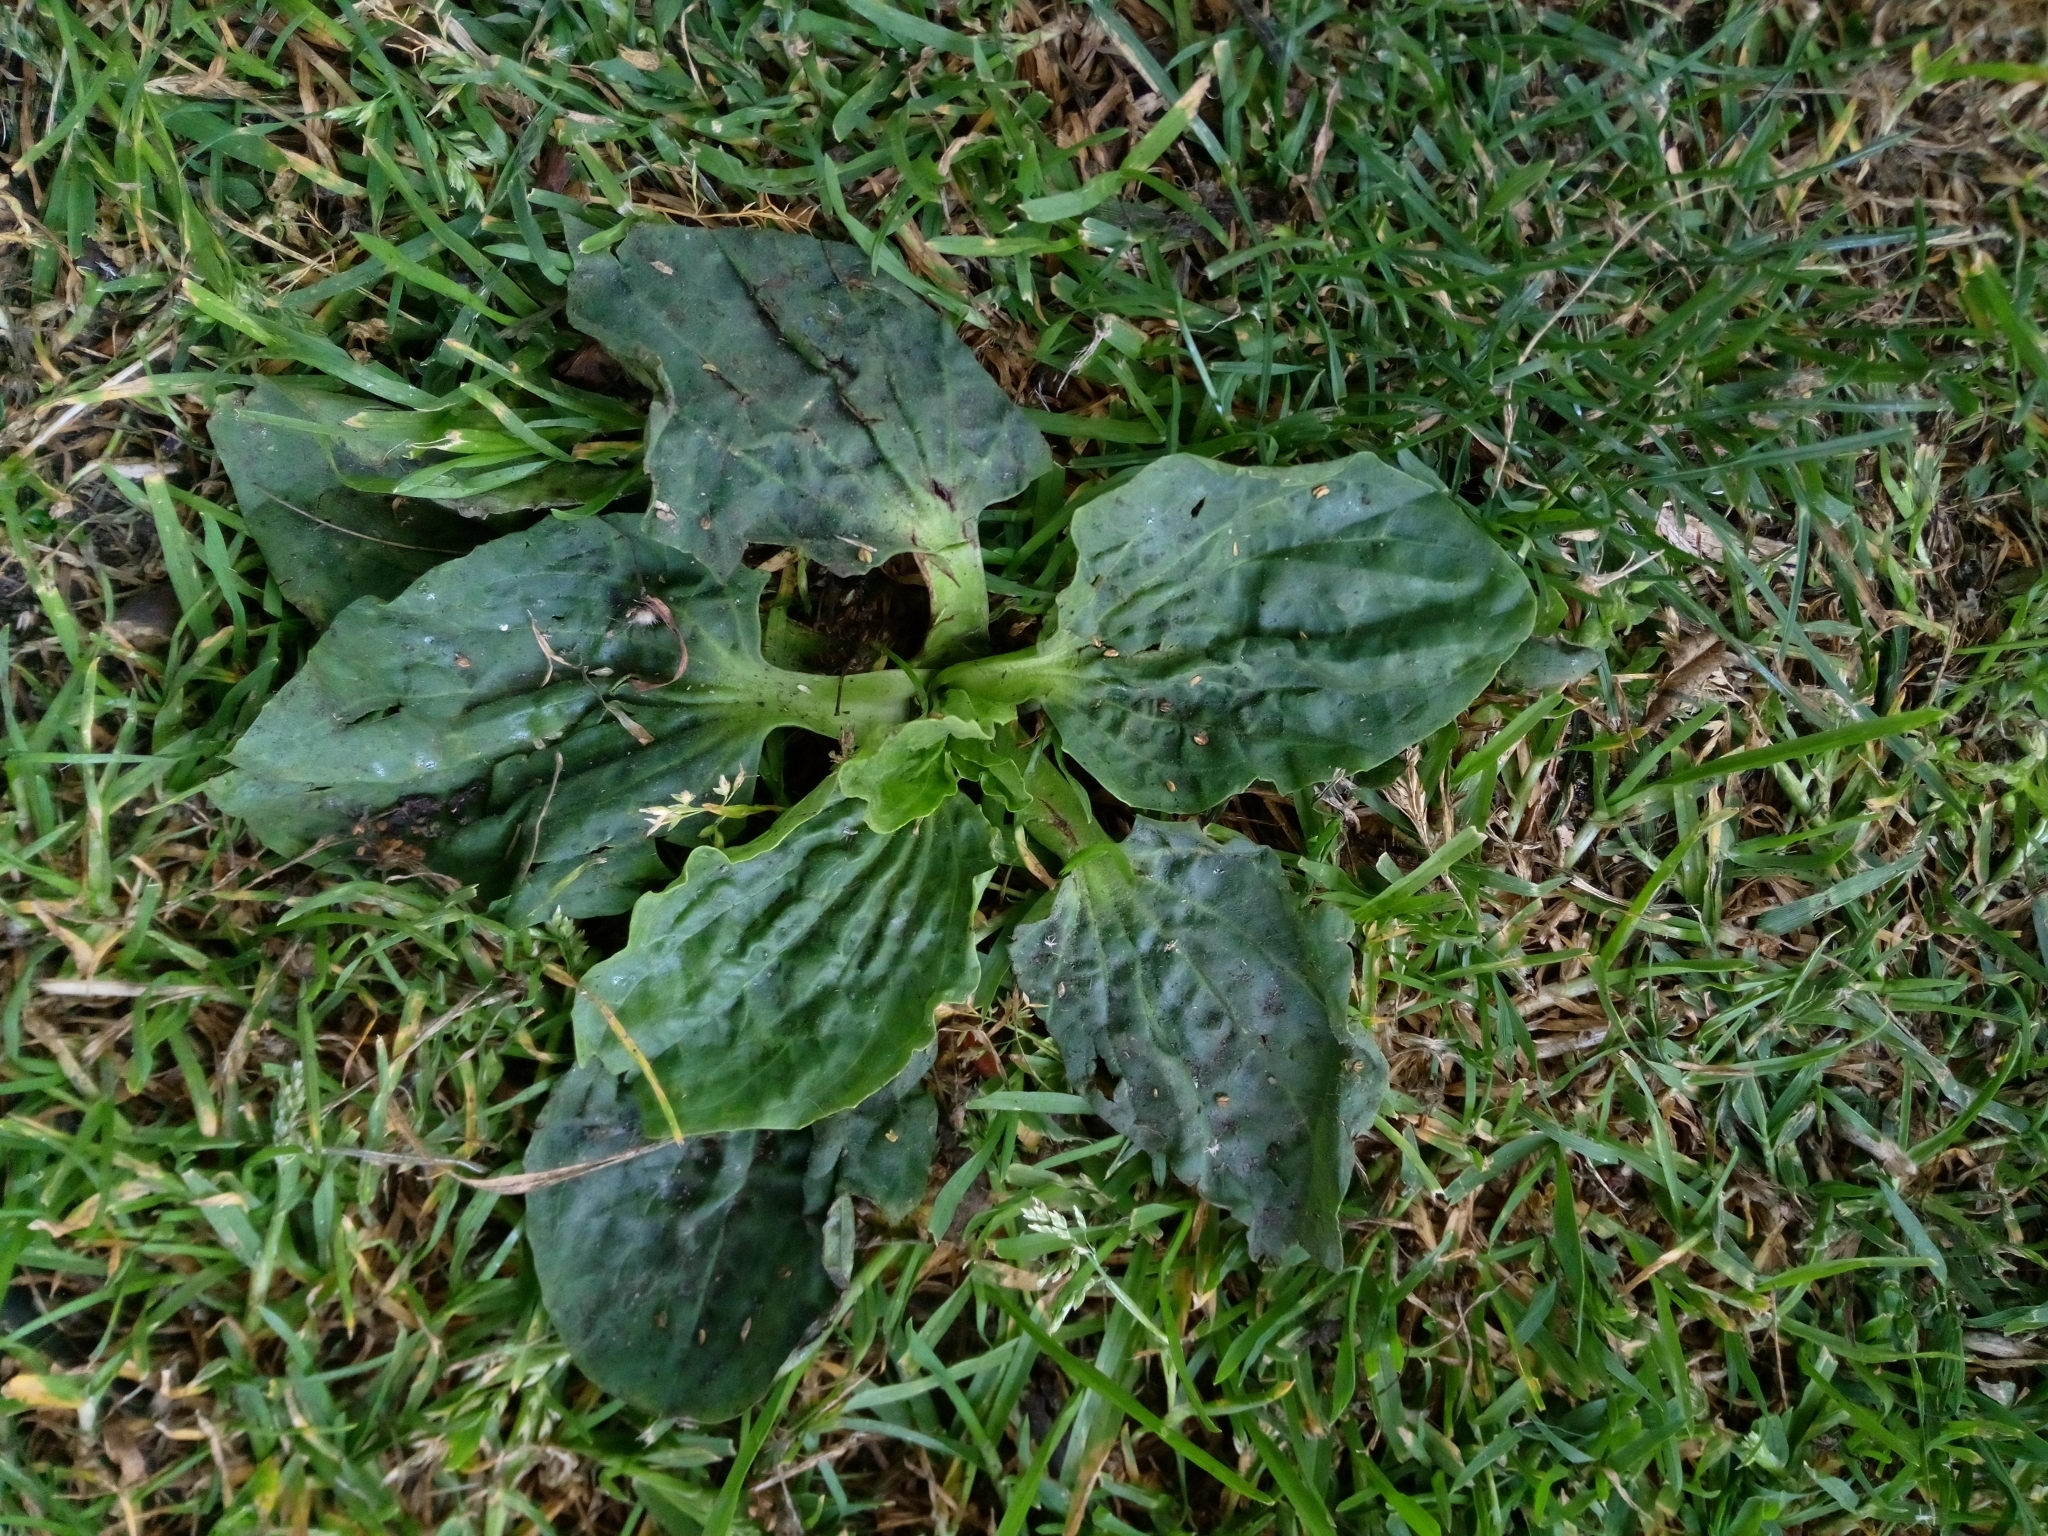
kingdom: Plantae
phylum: Tracheophyta
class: Magnoliopsida
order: Lamiales
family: Plantaginaceae
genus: Plantago
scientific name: Plantago major
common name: Common plantain
